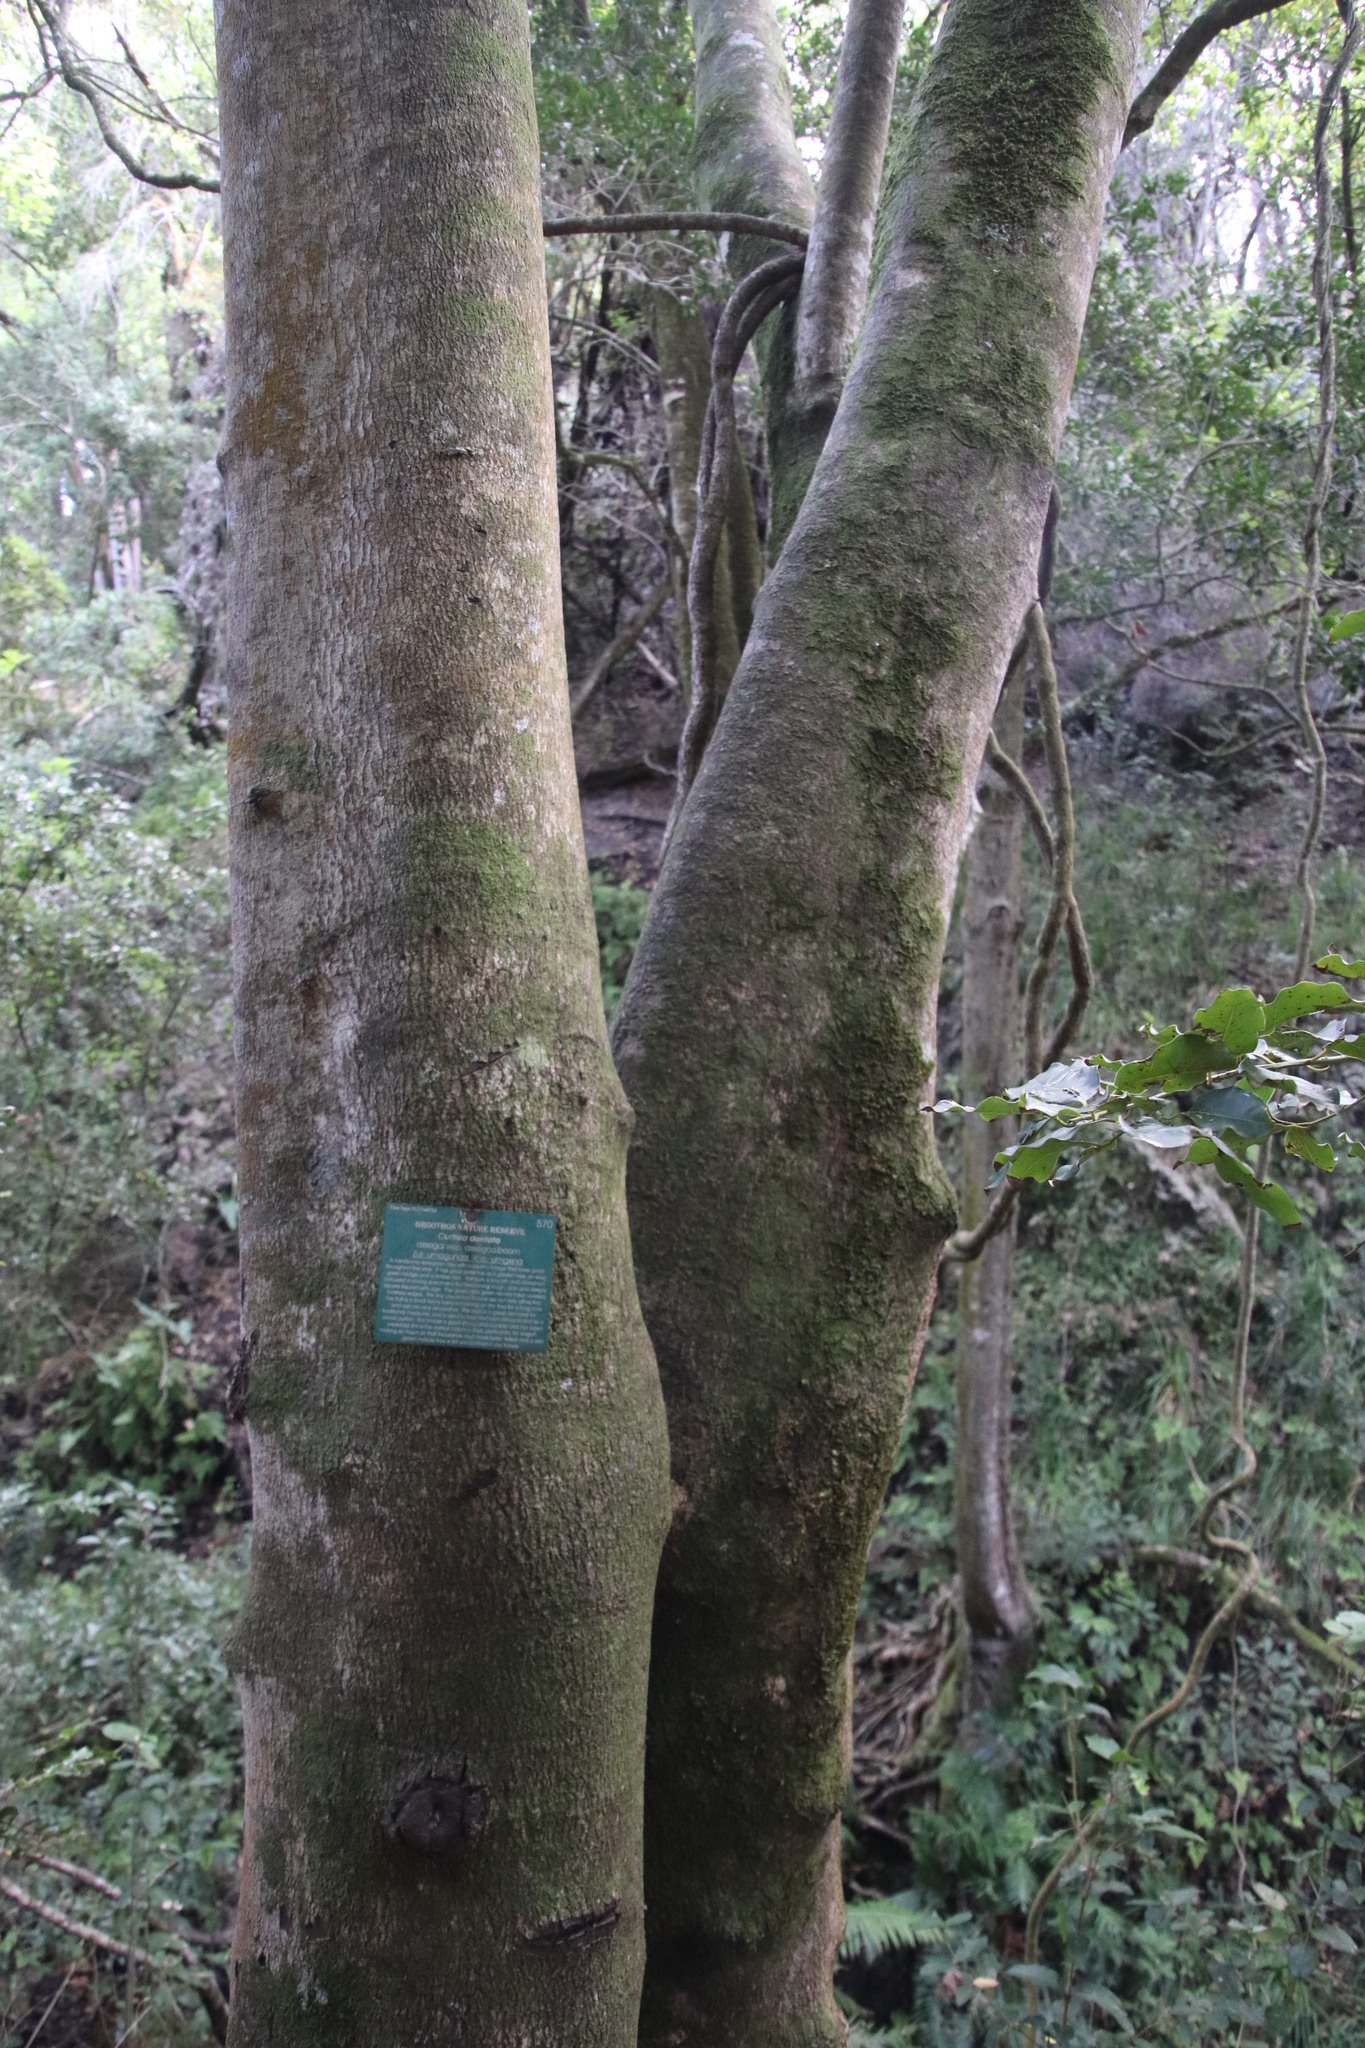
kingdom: Plantae
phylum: Tracheophyta
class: Magnoliopsida
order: Cornales
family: Curtisiaceae
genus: Curtisia
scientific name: Curtisia dentata
